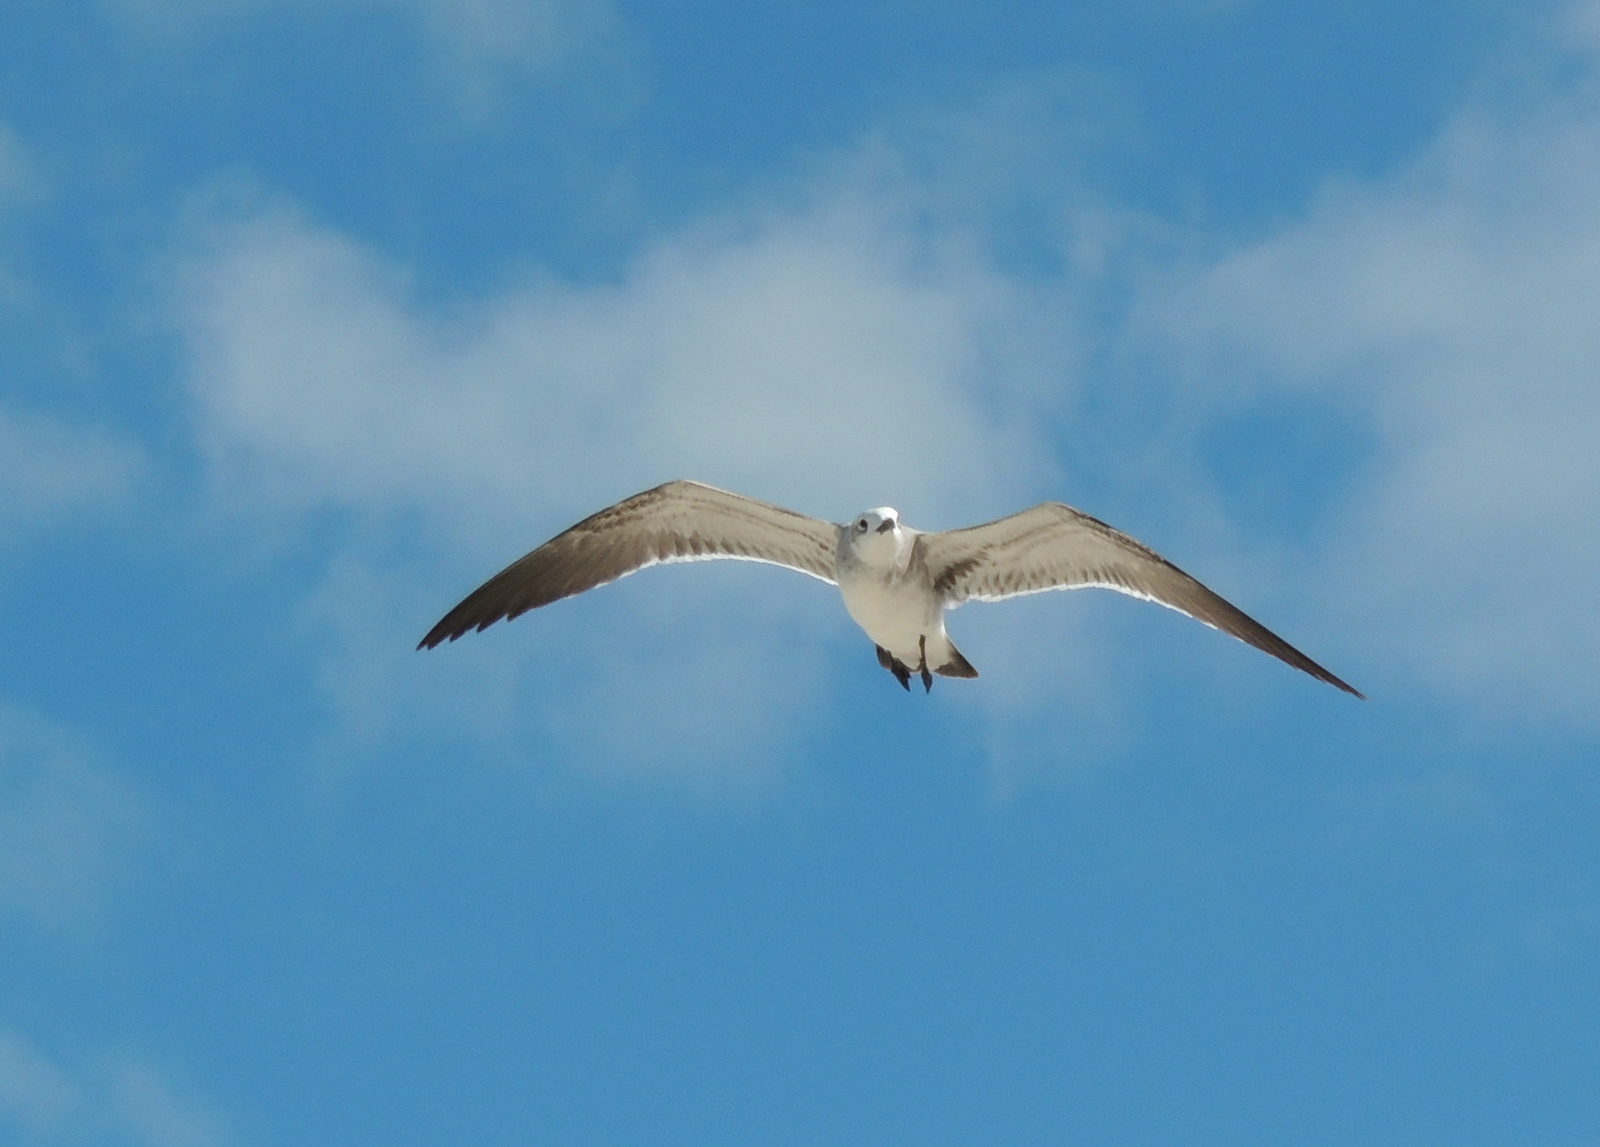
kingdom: Animalia
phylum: Chordata
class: Aves
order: Charadriiformes
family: Laridae
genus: Leucophaeus
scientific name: Leucophaeus atricilla
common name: Laughing gull
